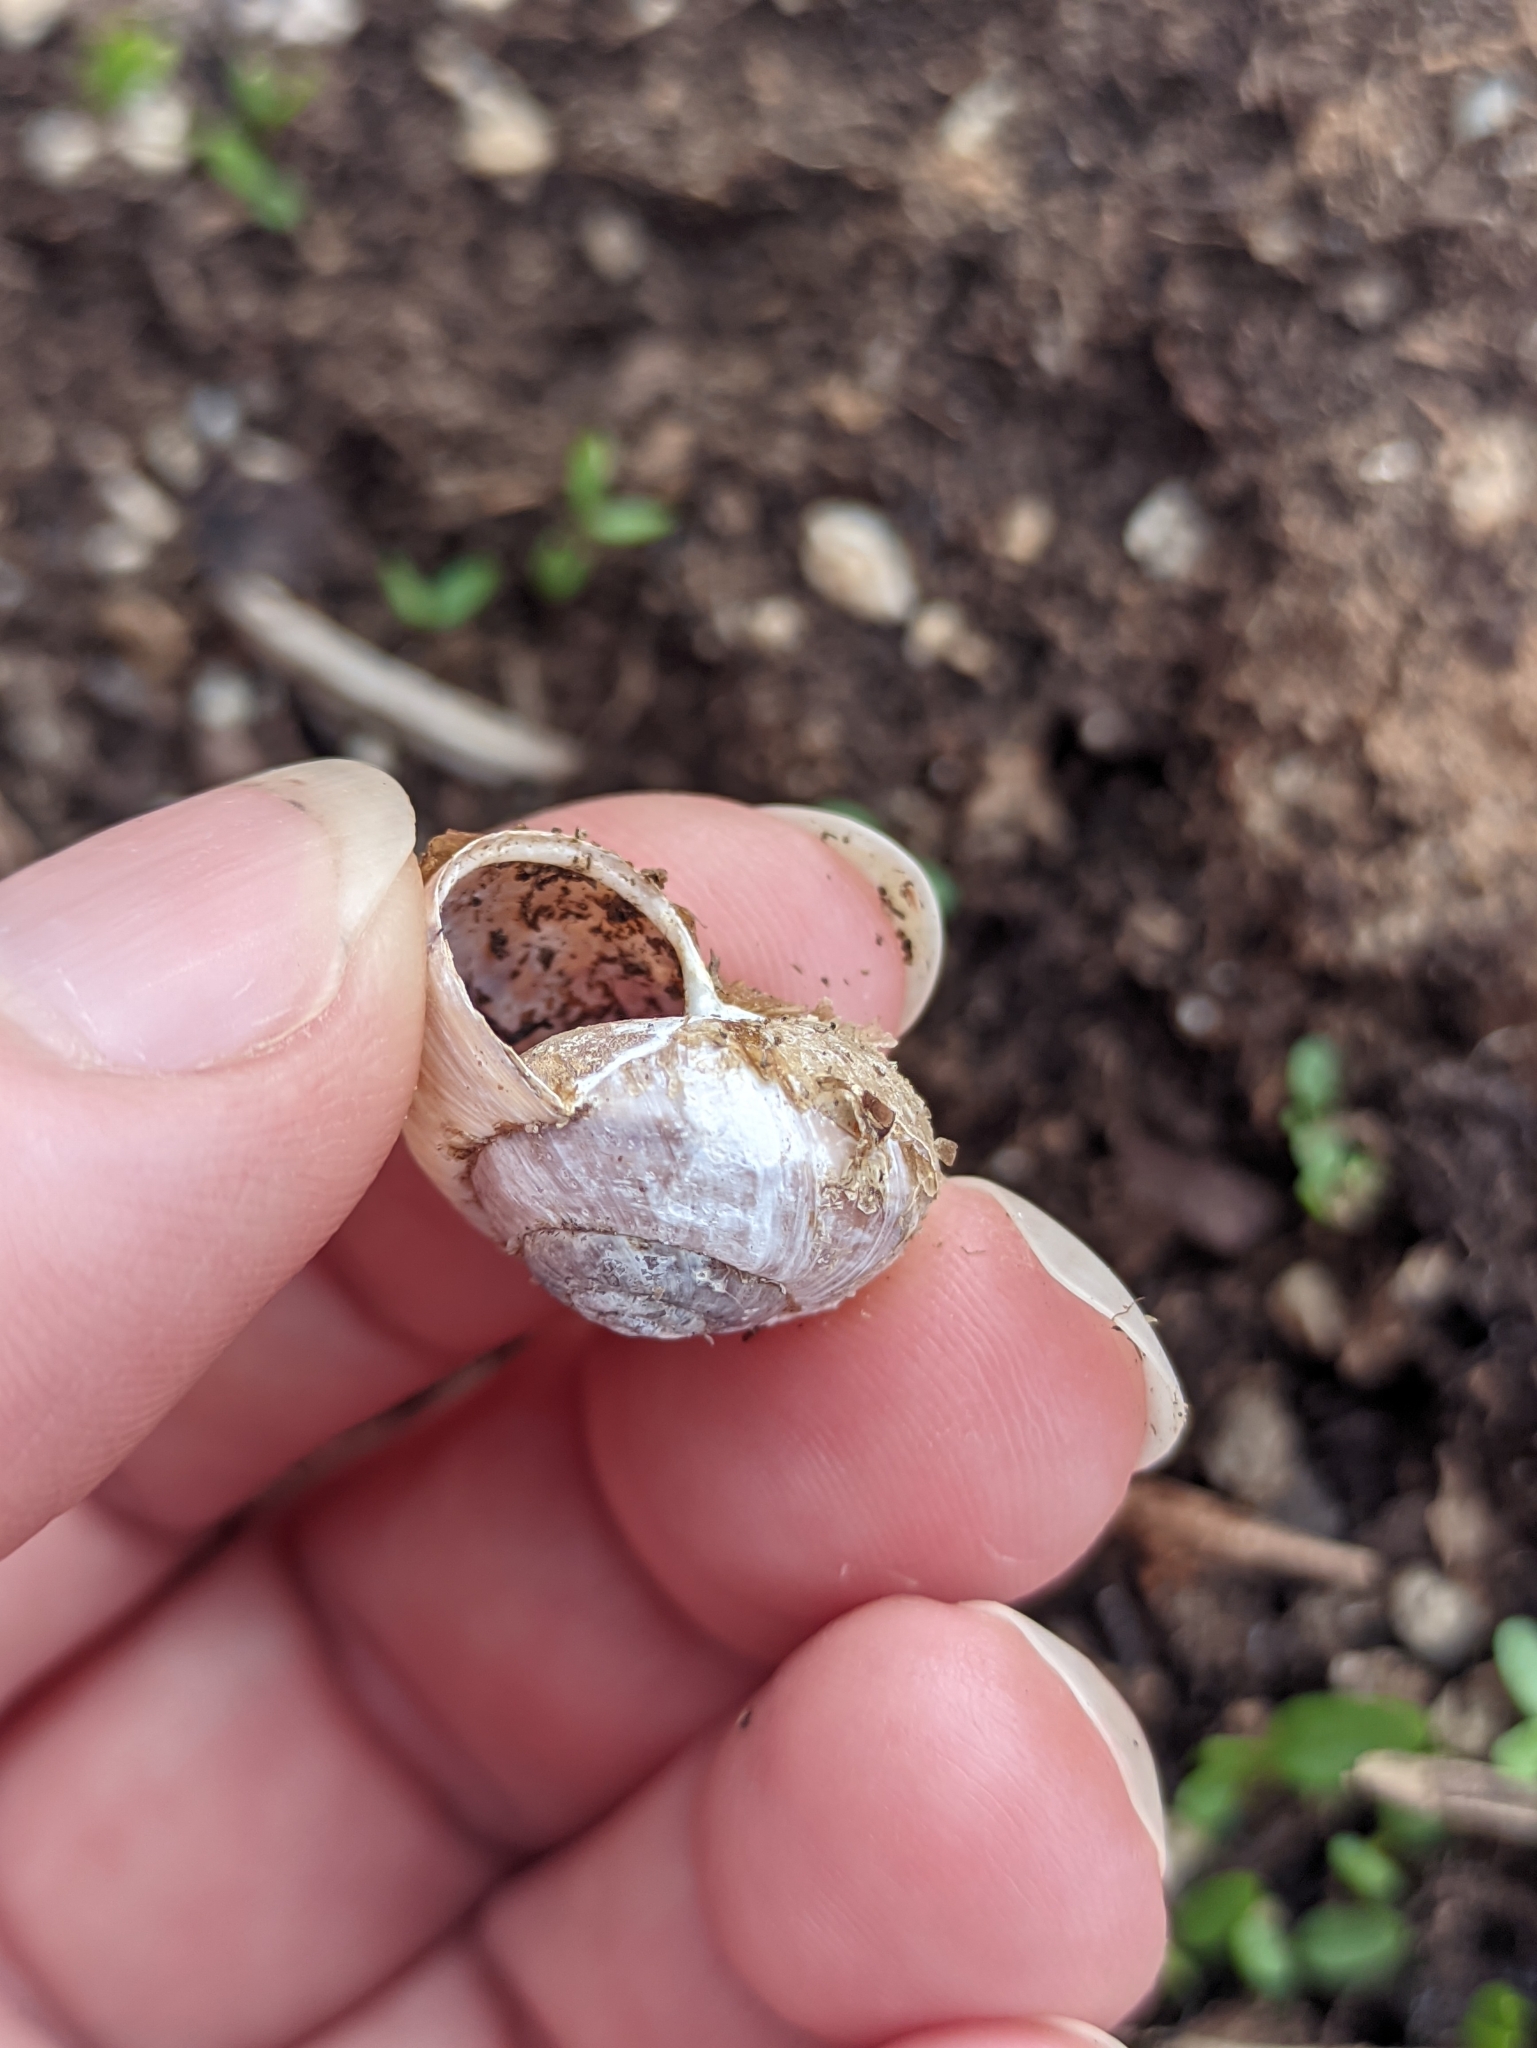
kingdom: Animalia
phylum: Mollusca
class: Gastropoda
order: Stylommatophora
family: Helicidae
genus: Arianta
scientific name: Arianta arbustorum
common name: Copse snail
